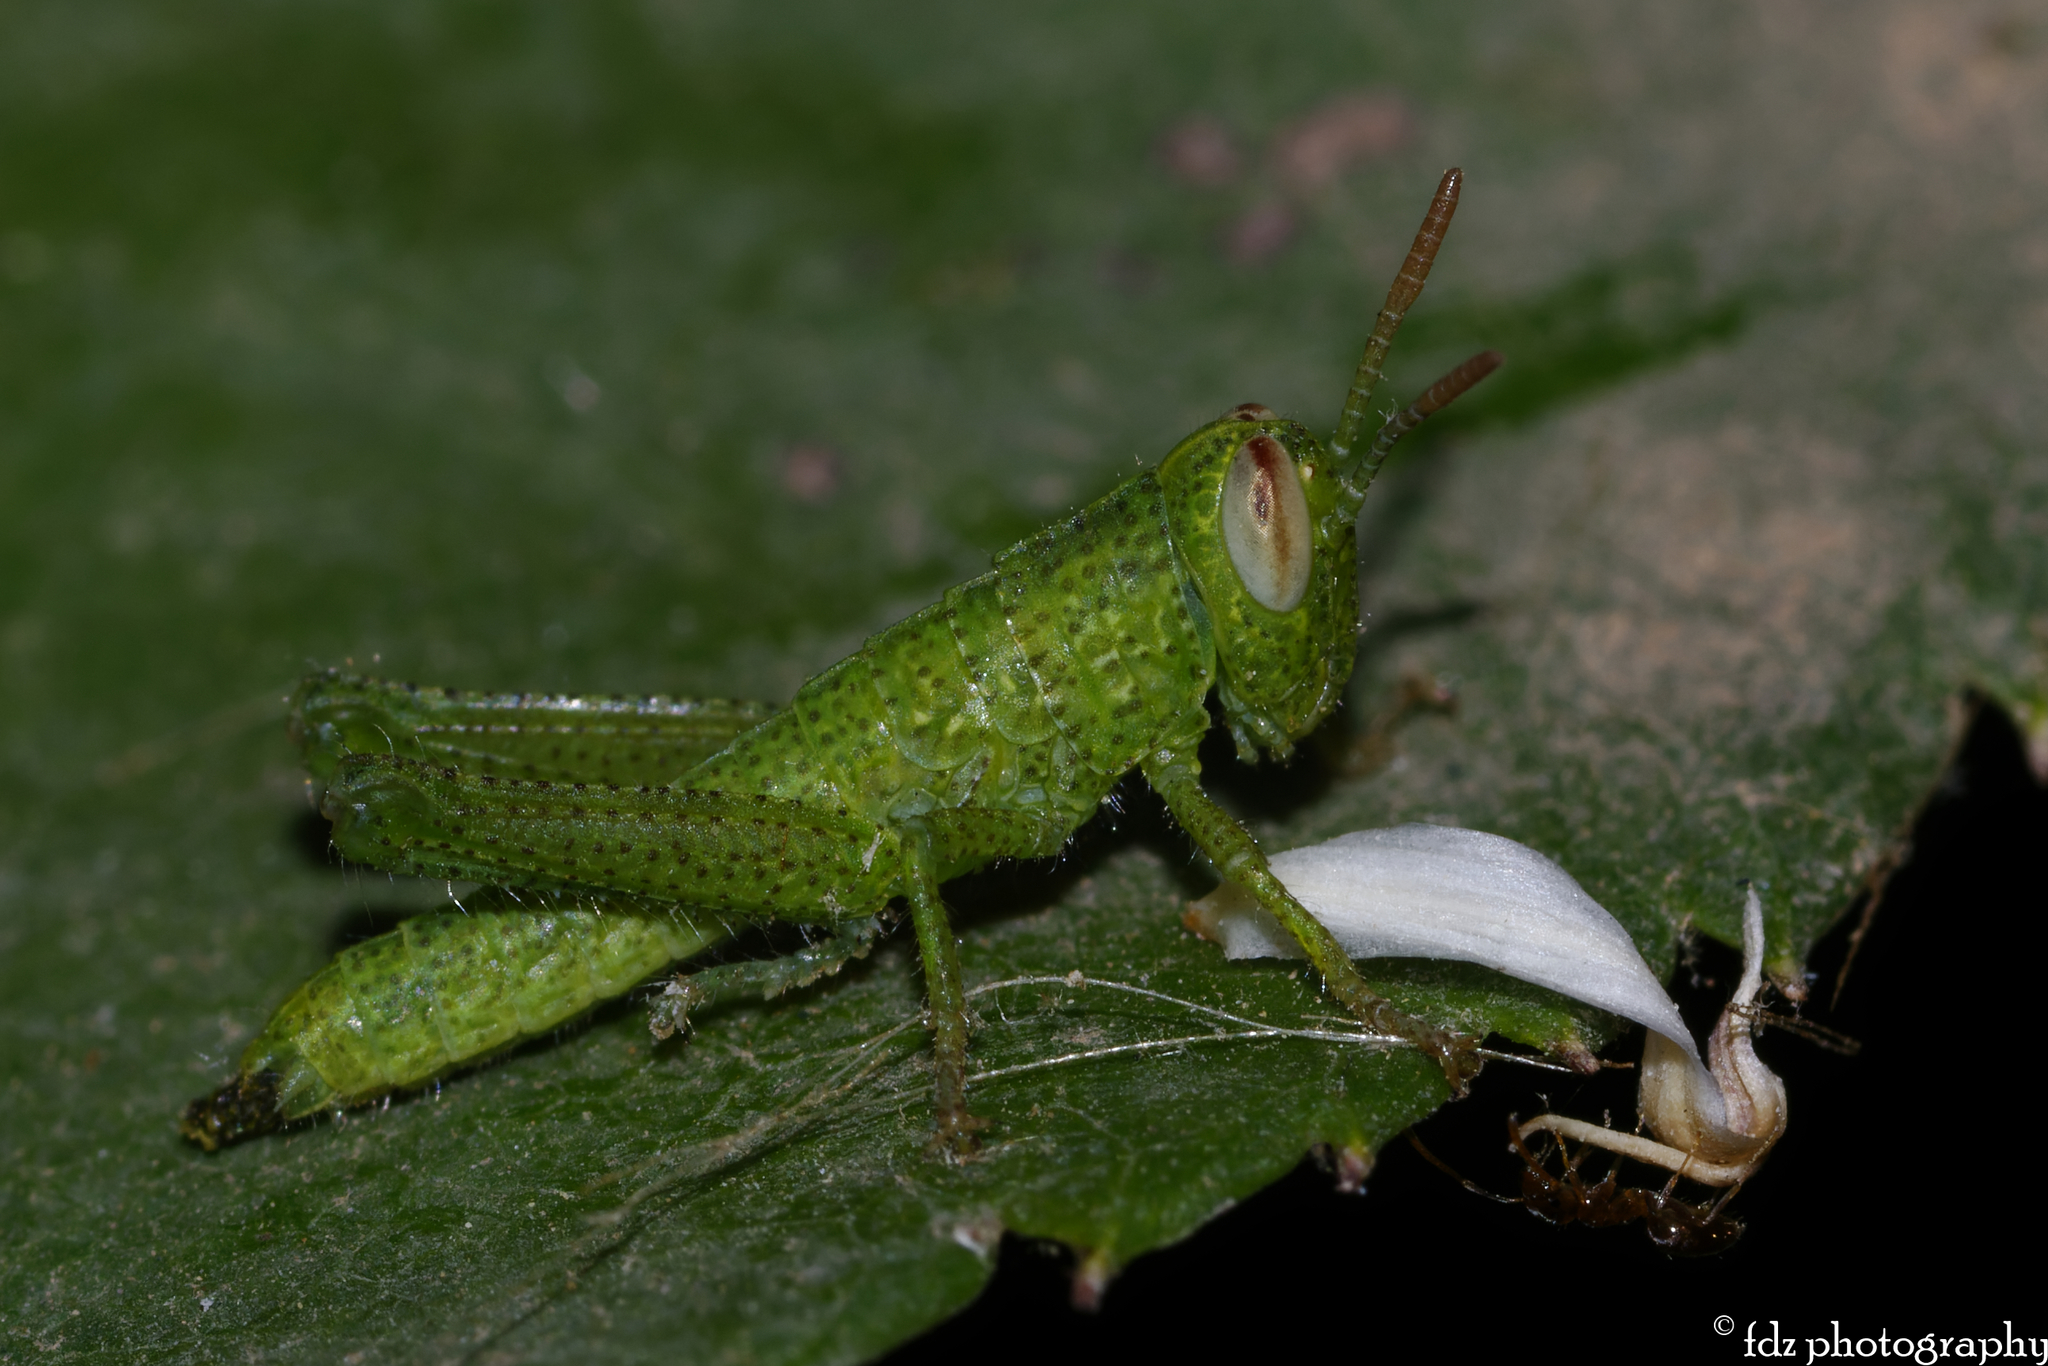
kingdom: Animalia
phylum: Arthropoda
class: Insecta
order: Orthoptera
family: Acrididae
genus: Anacridium
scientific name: Anacridium aegyptium
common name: Egyptian grasshopper
